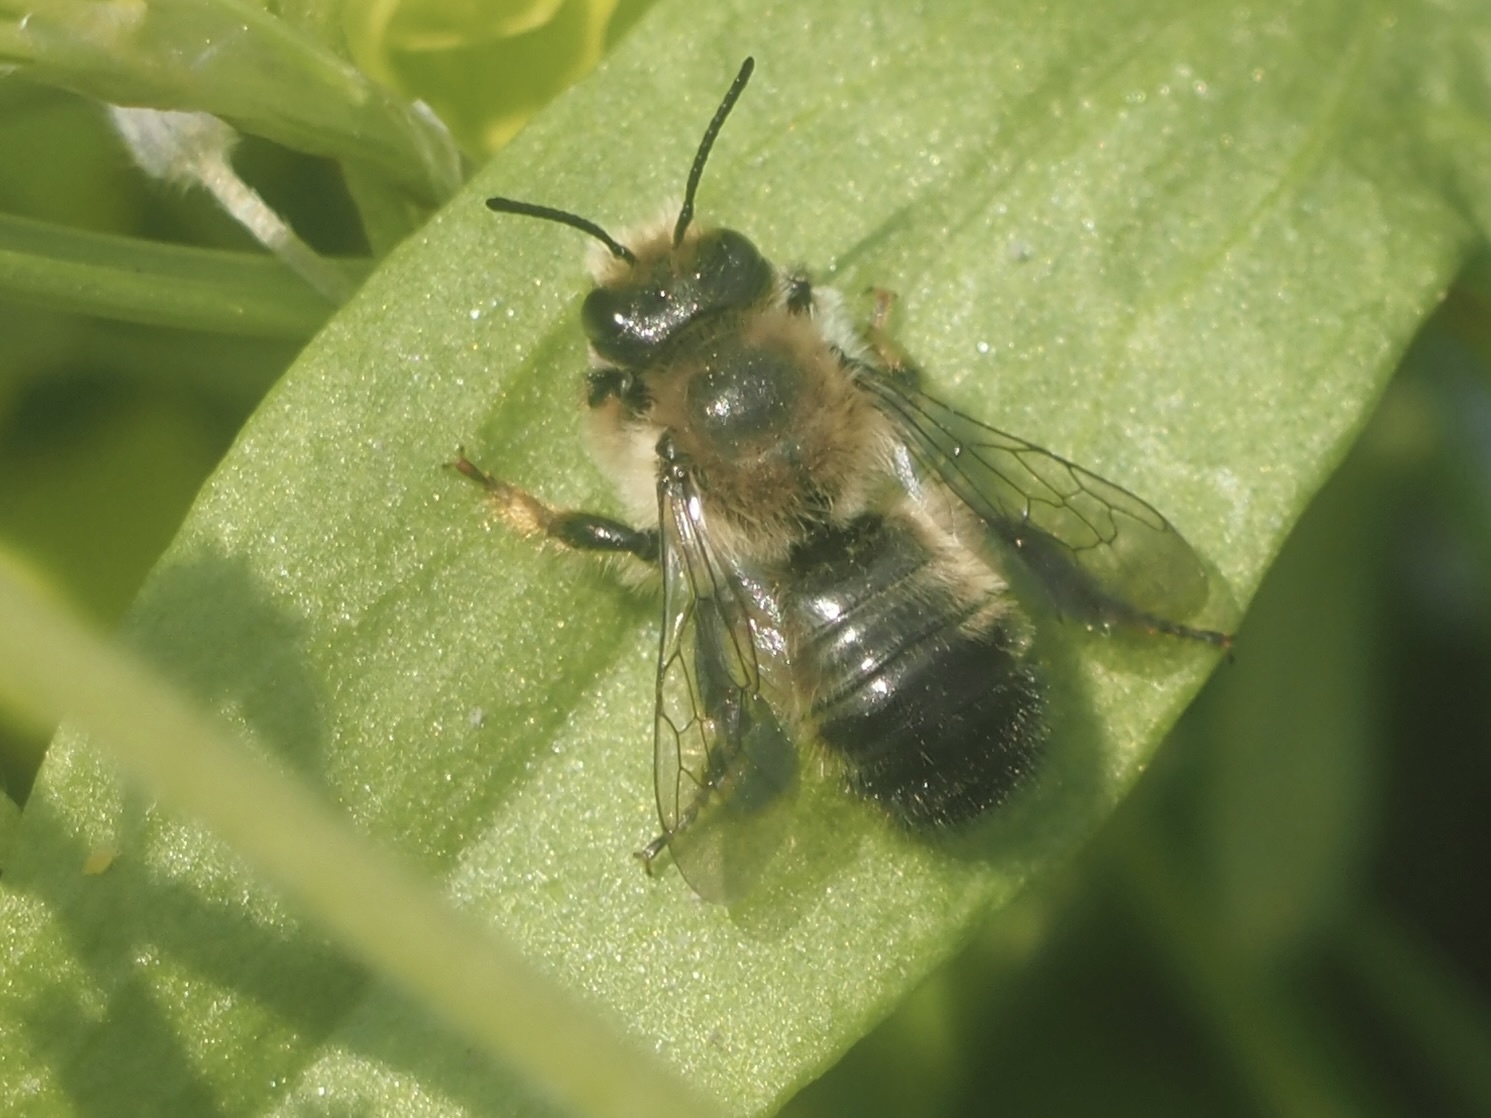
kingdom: Animalia
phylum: Arthropoda
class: Insecta
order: Hymenoptera
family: Megachilidae
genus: Megachile
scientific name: Megachile melanophaea
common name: Black-and-gray leafcutter bee
